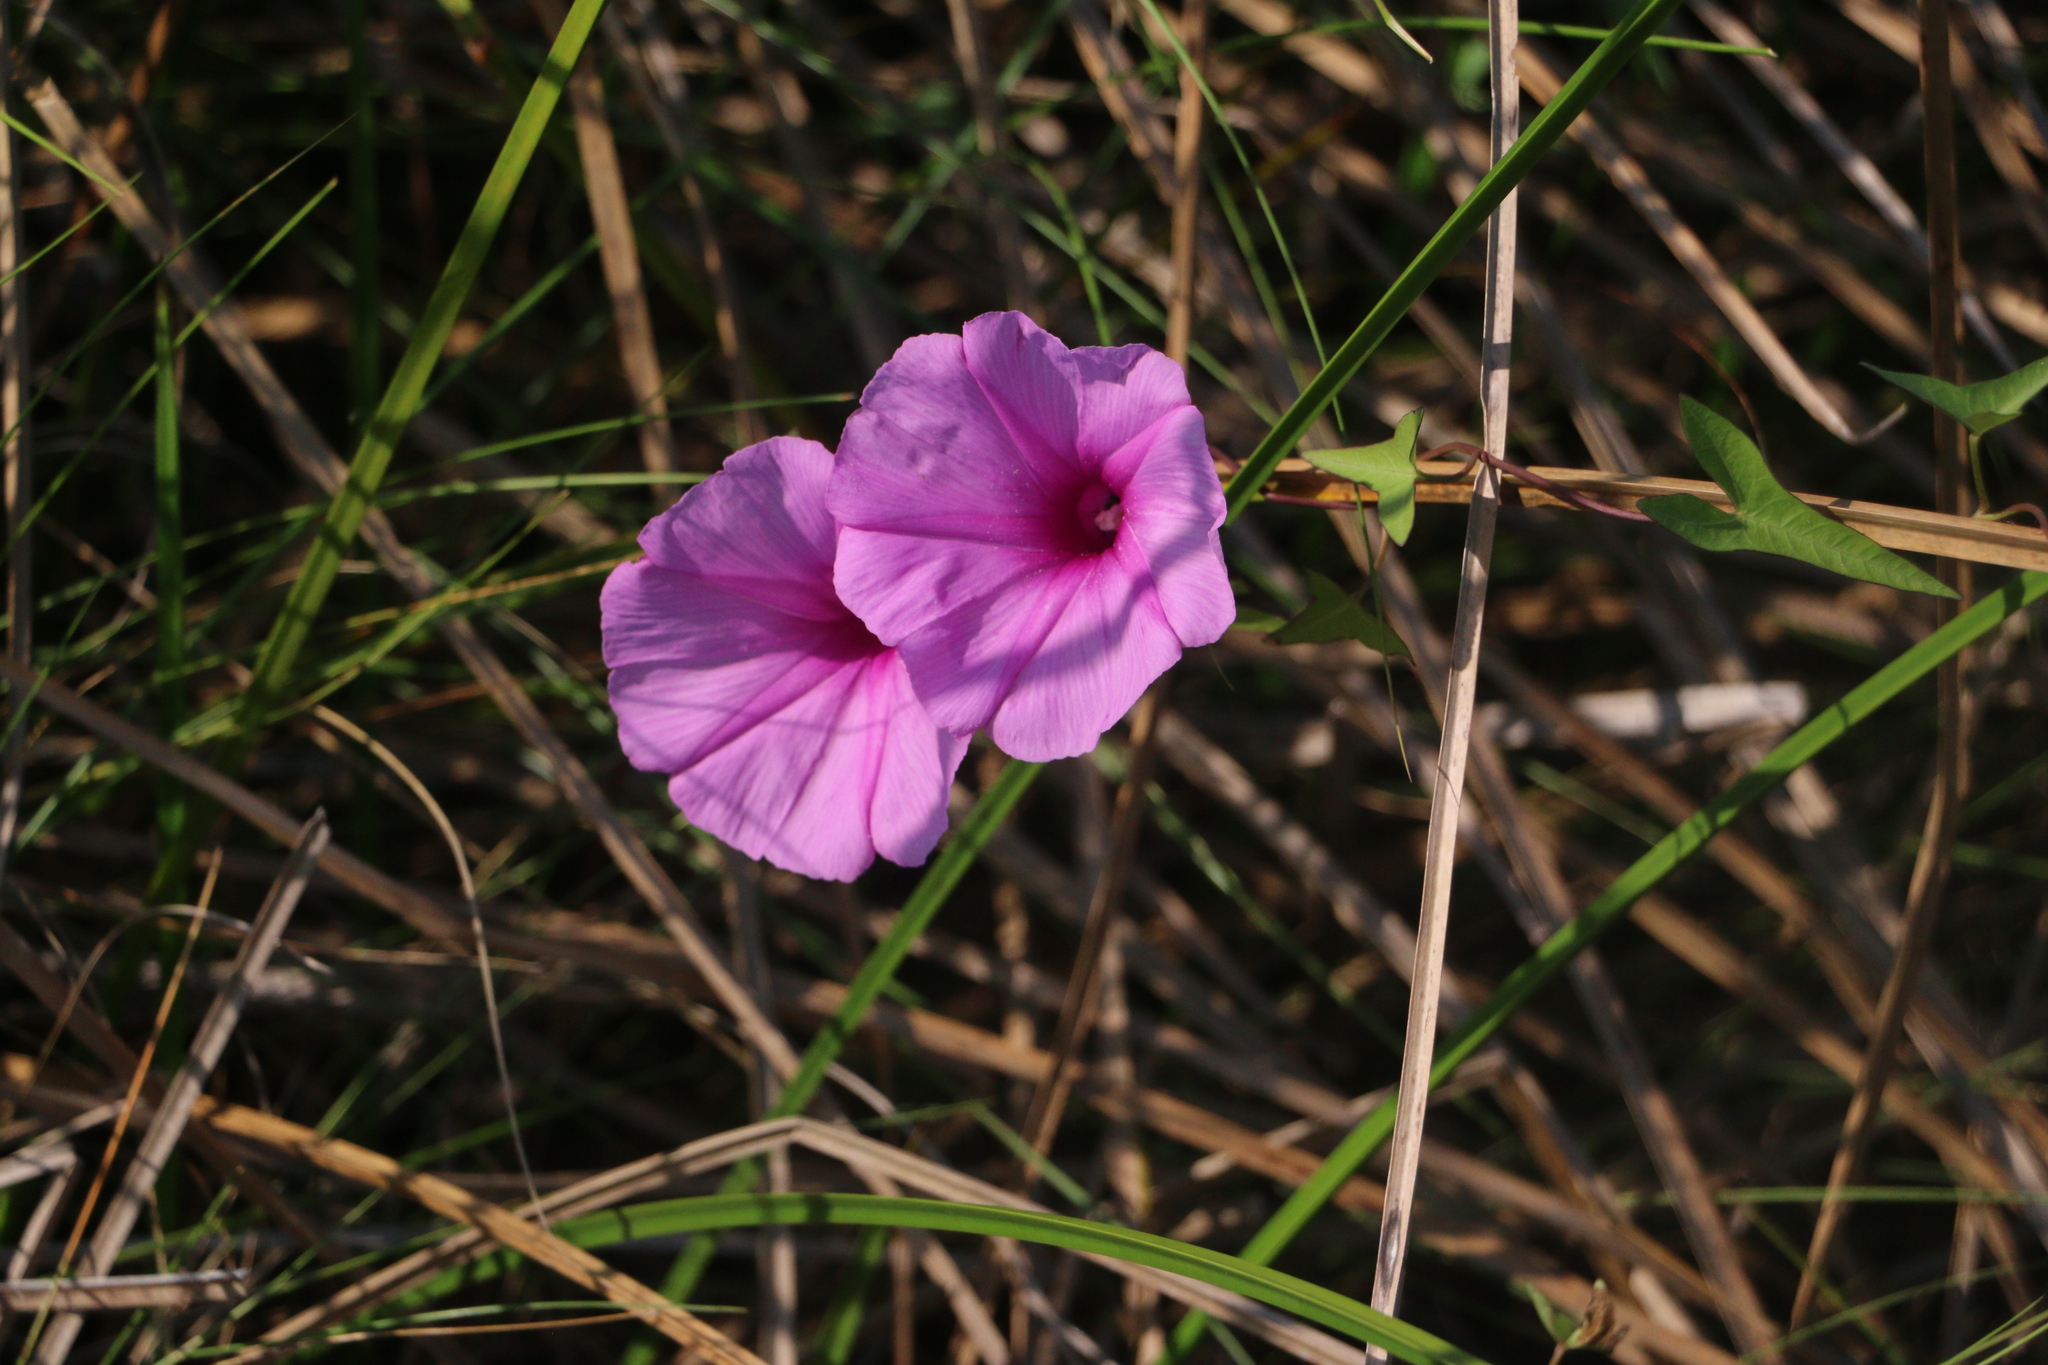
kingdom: Plantae
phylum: Tracheophyta
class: Magnoliopsida
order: Solanales
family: Convolvulaceae
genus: Ipomoea
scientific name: Ipomoea sagittata
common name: Saltmarsh morning glory
